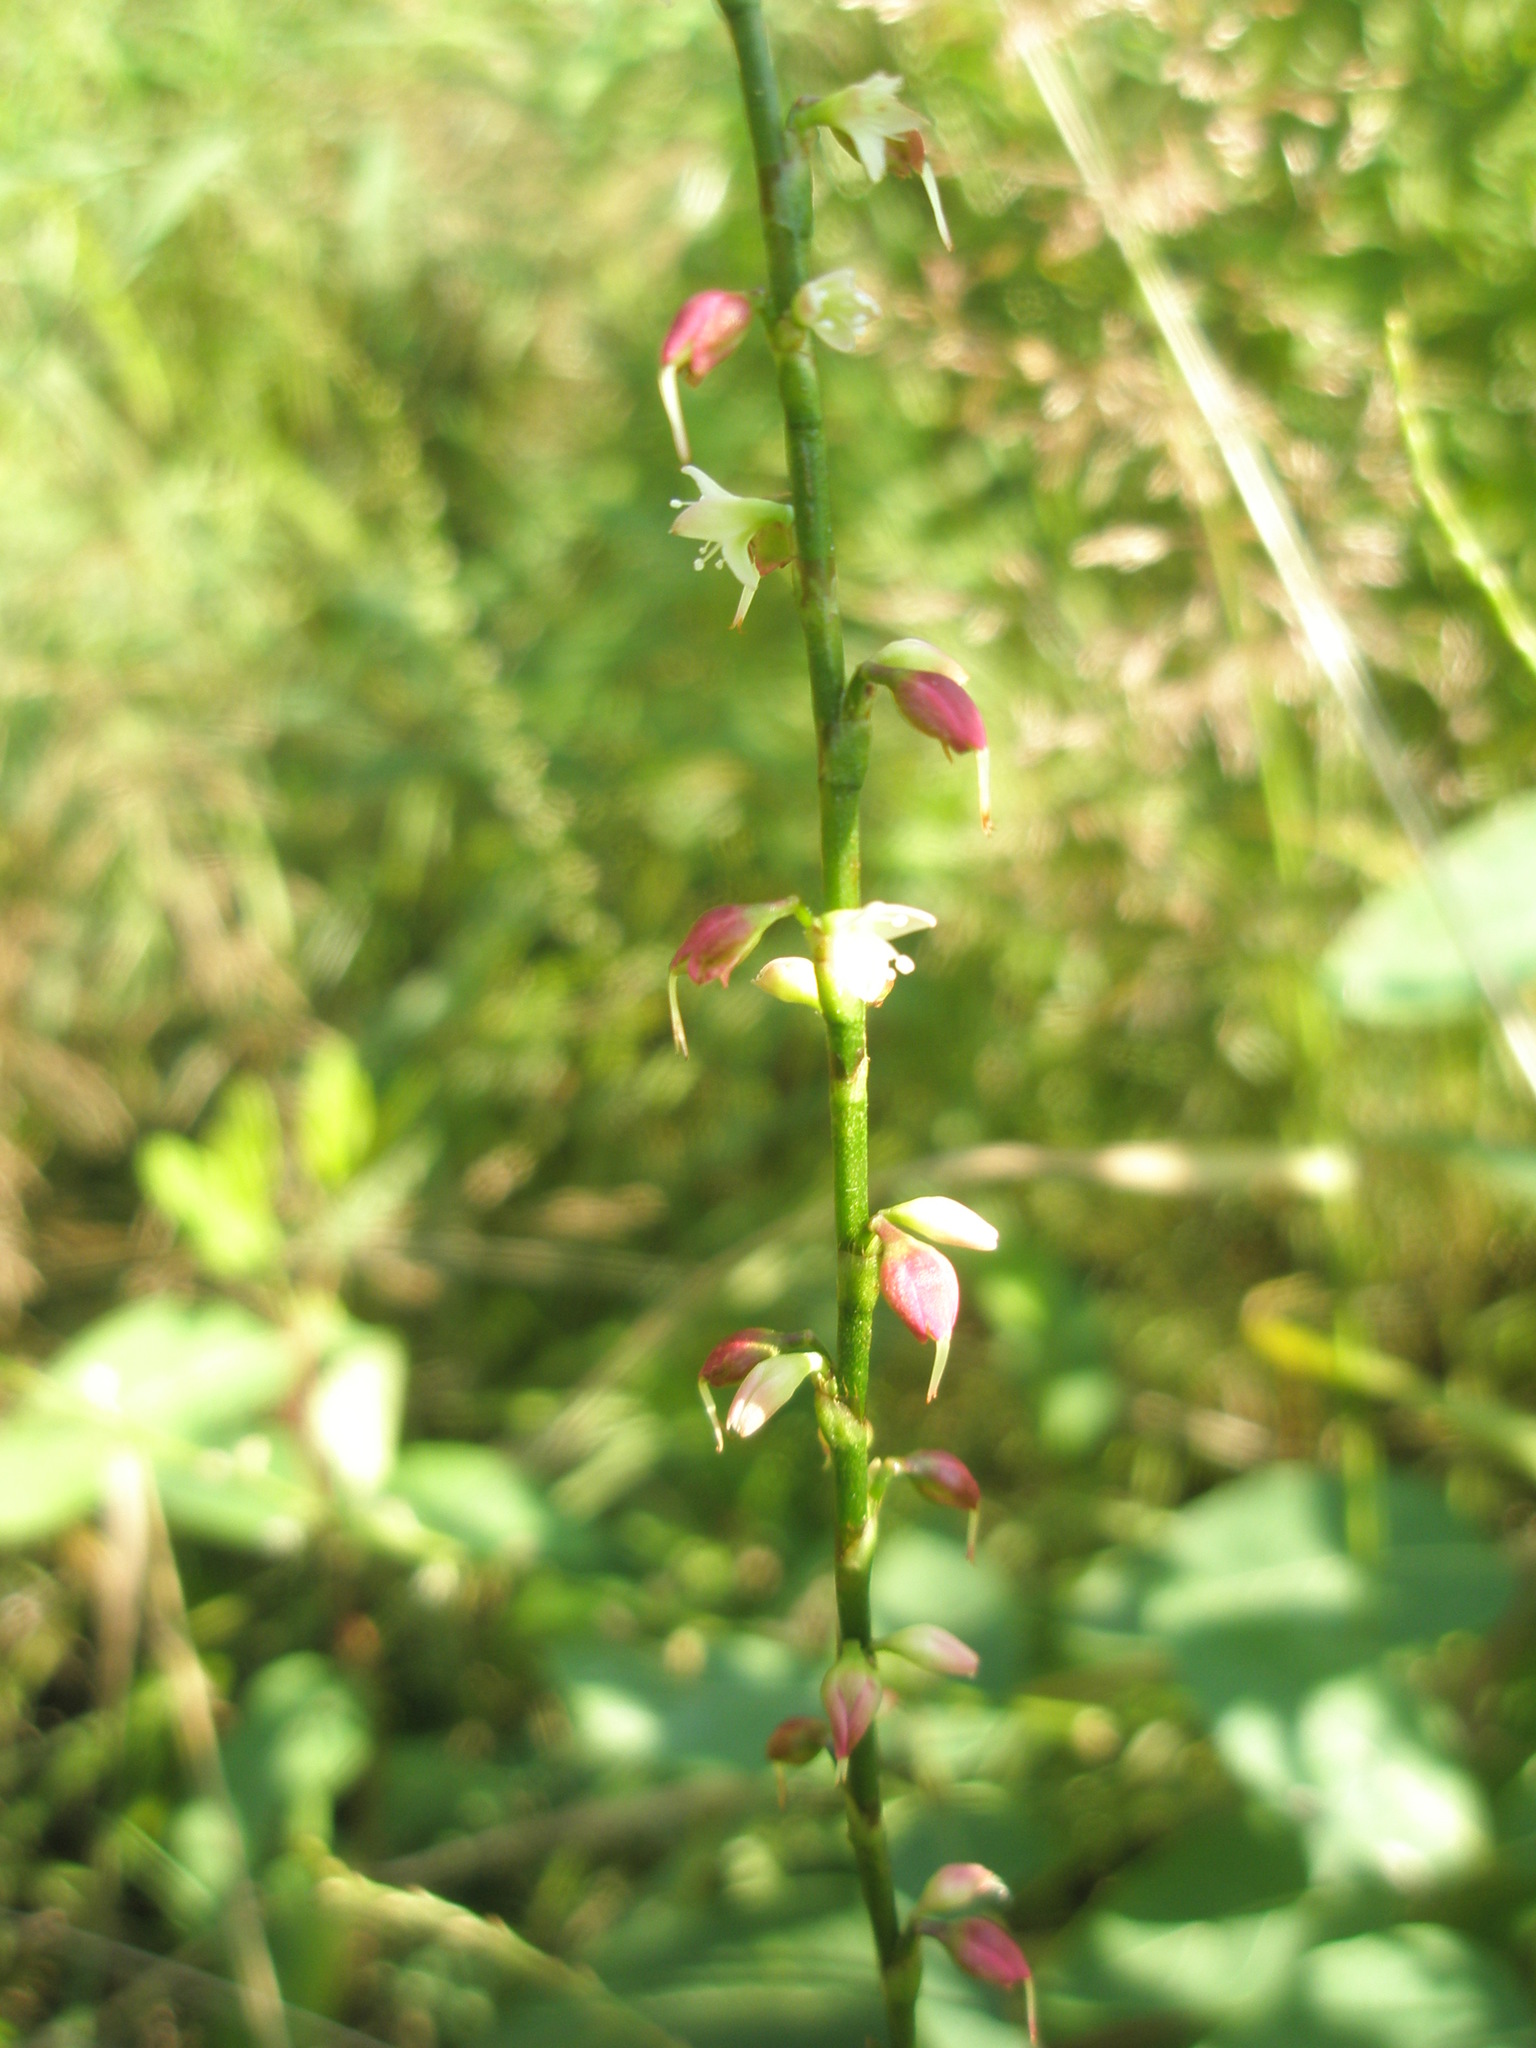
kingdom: Plantae
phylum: Tracheophyta
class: Magnoliopsida
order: Caryophyllales
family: Polygonaceae
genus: Persicaria
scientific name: Persicaria virginiana
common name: Jumpseed
